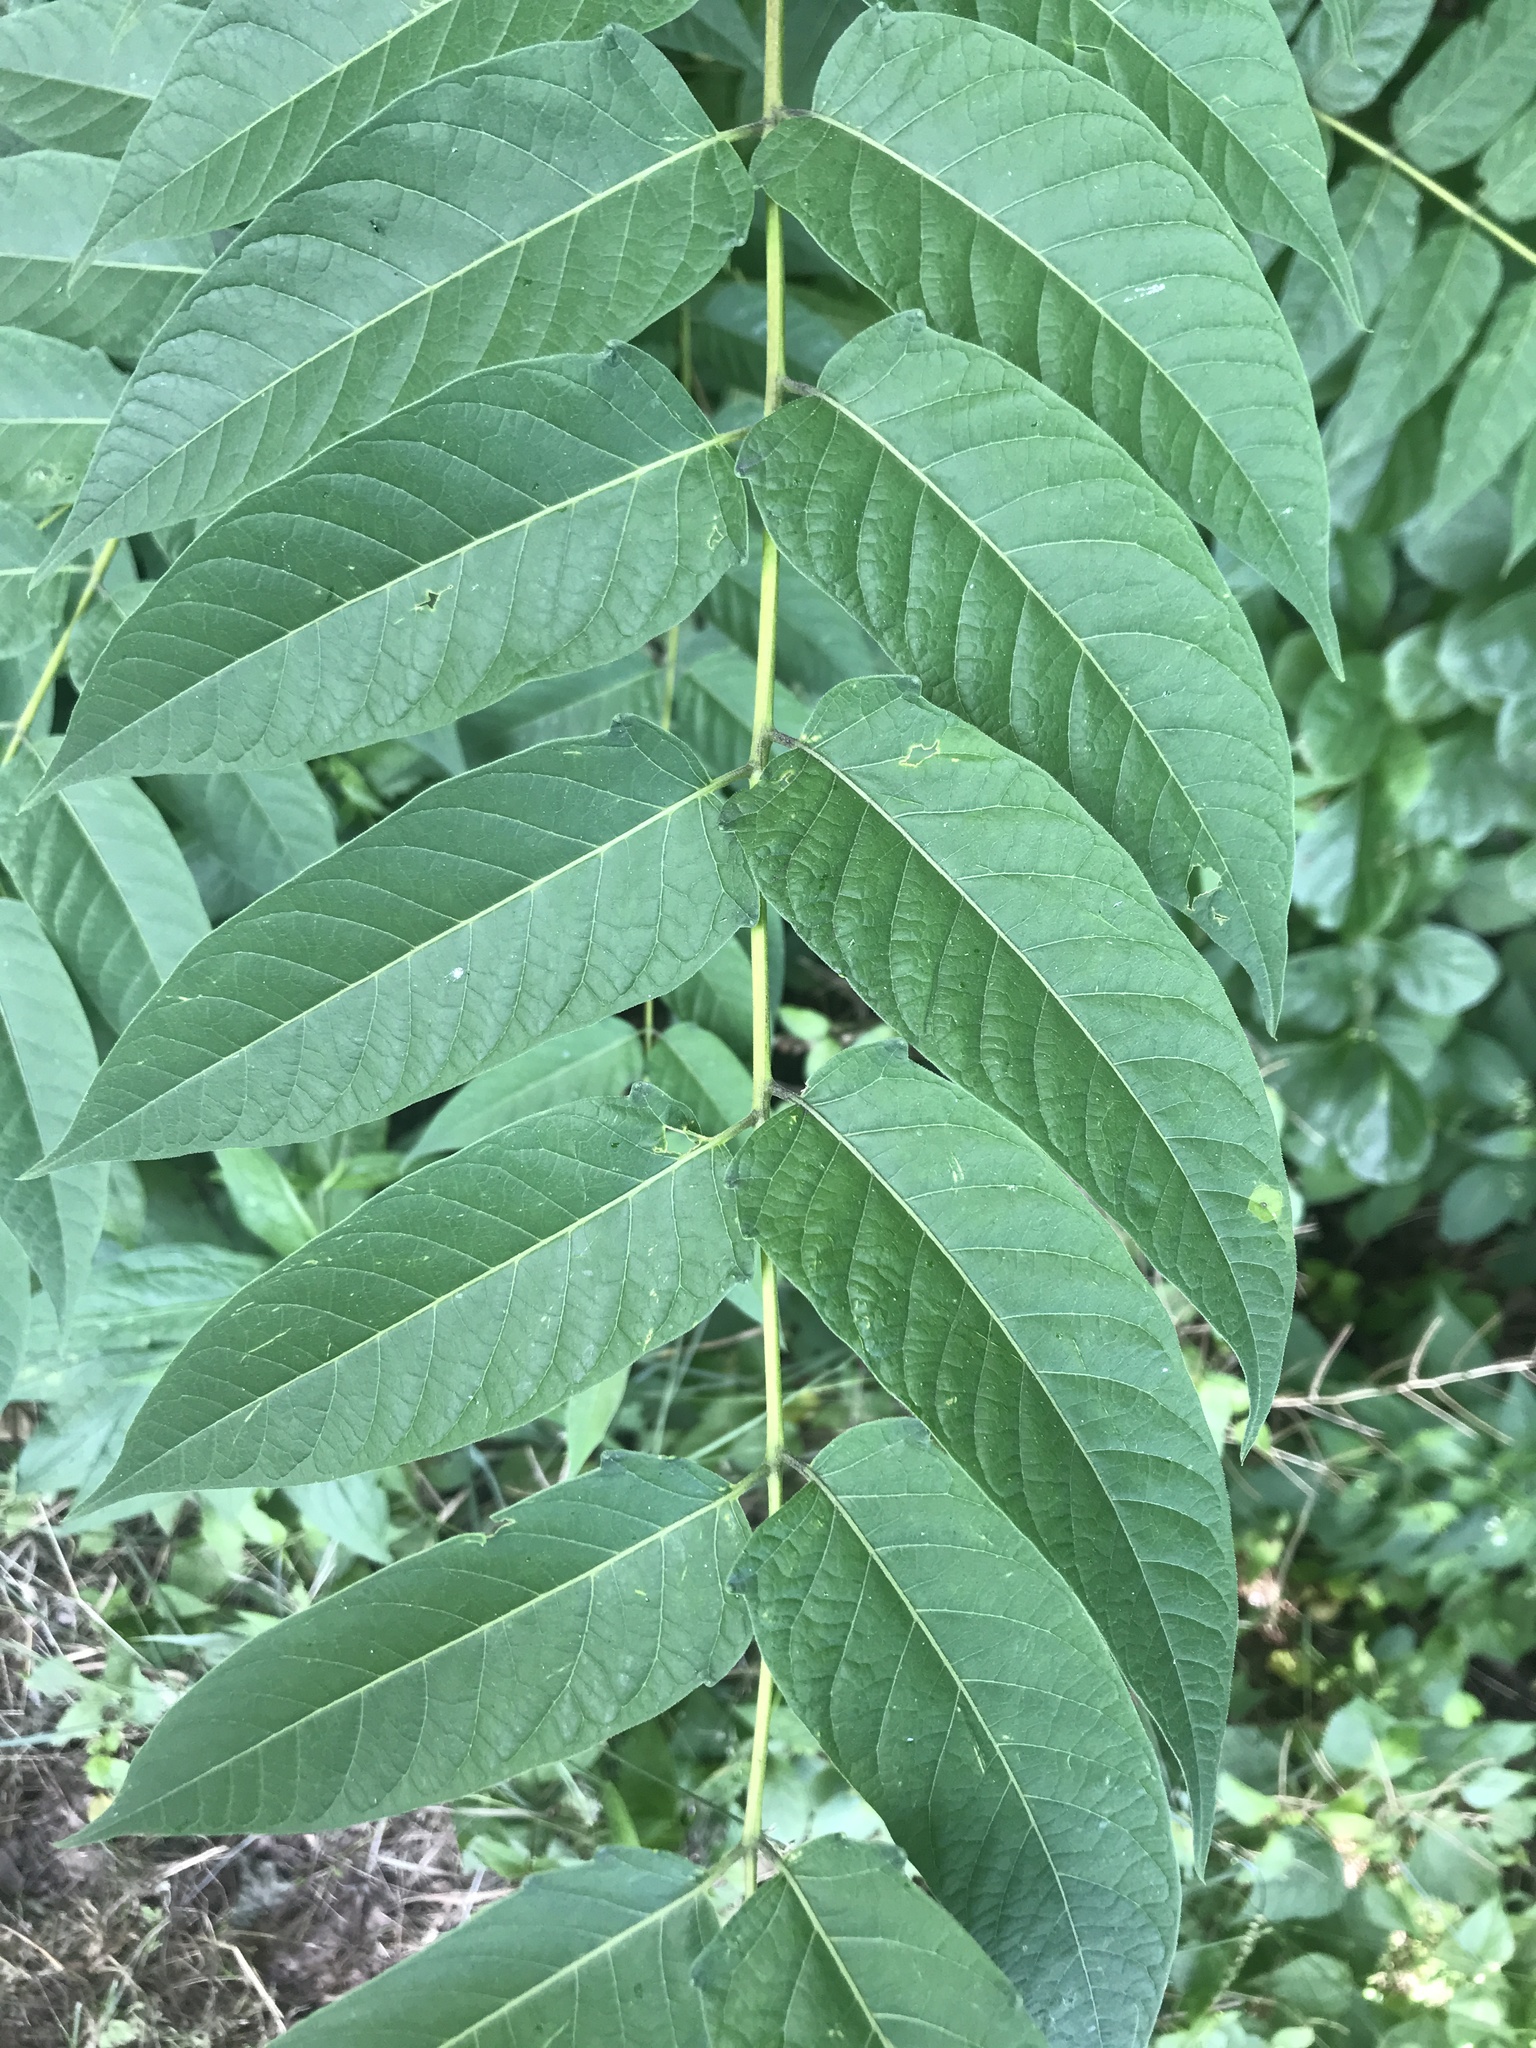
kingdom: Plantae
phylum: Tracheophyta
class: Magnoliopsida
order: Sapindales
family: Simaroubaceae
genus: Ailanthus
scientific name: Ailanthus altissima
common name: Tree-of-heaven
